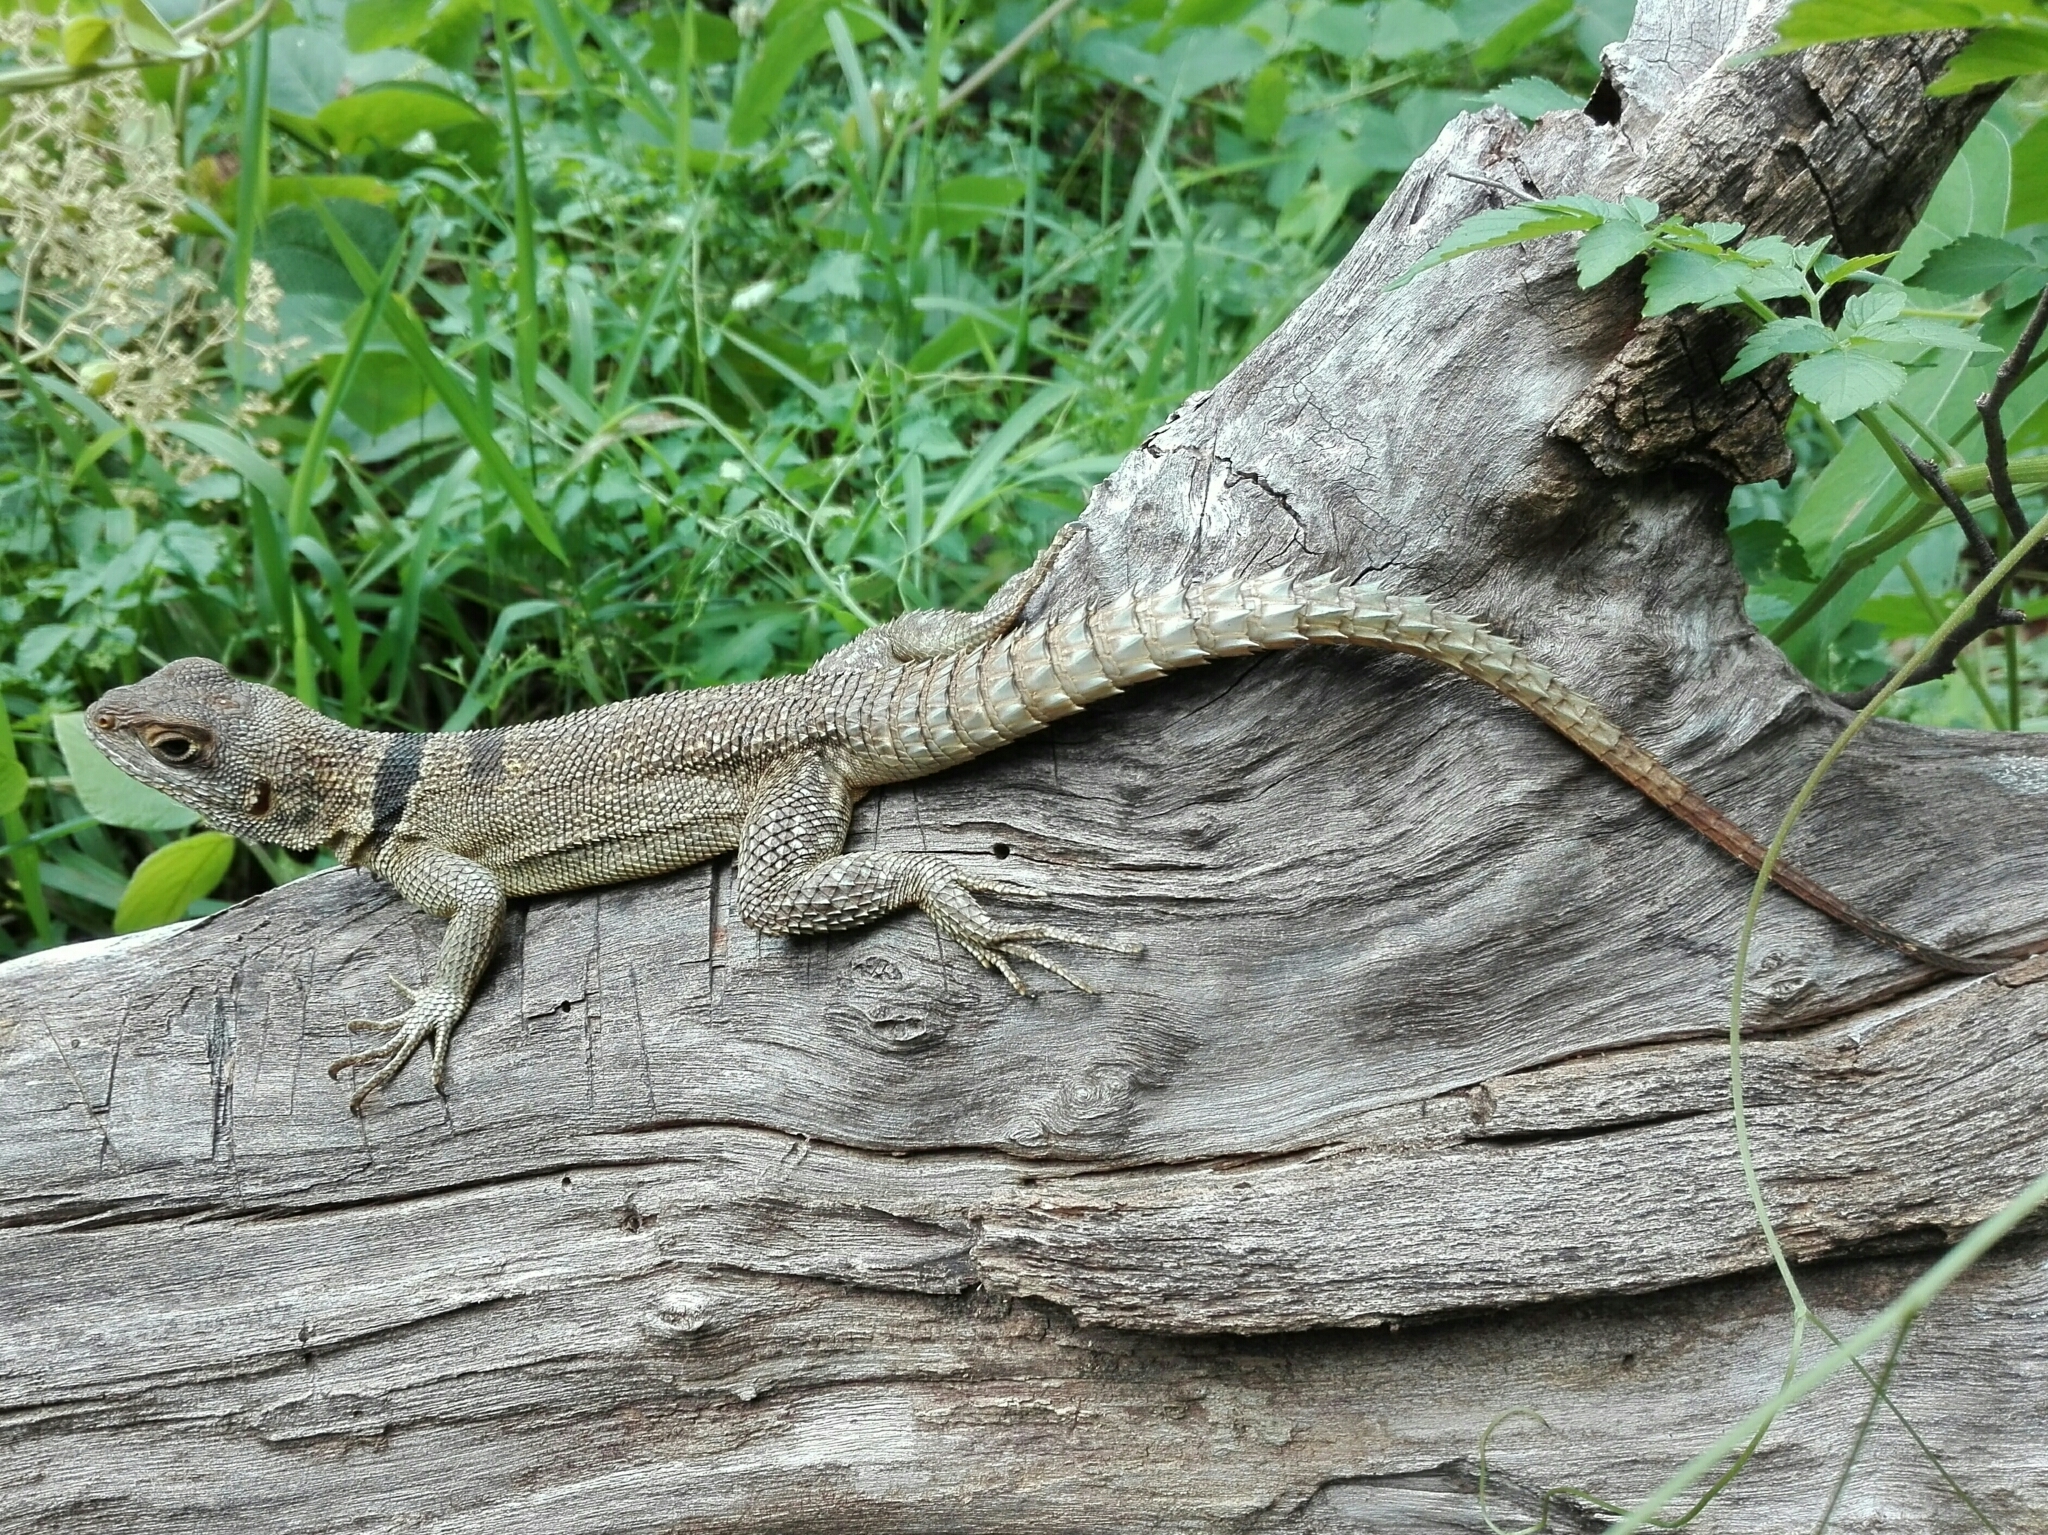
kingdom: Animalia
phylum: Chordata
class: Squamata
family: Opluridae
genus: Oplurus
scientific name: Oplurus cuvieri
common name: Cuvier's madagascar swift
